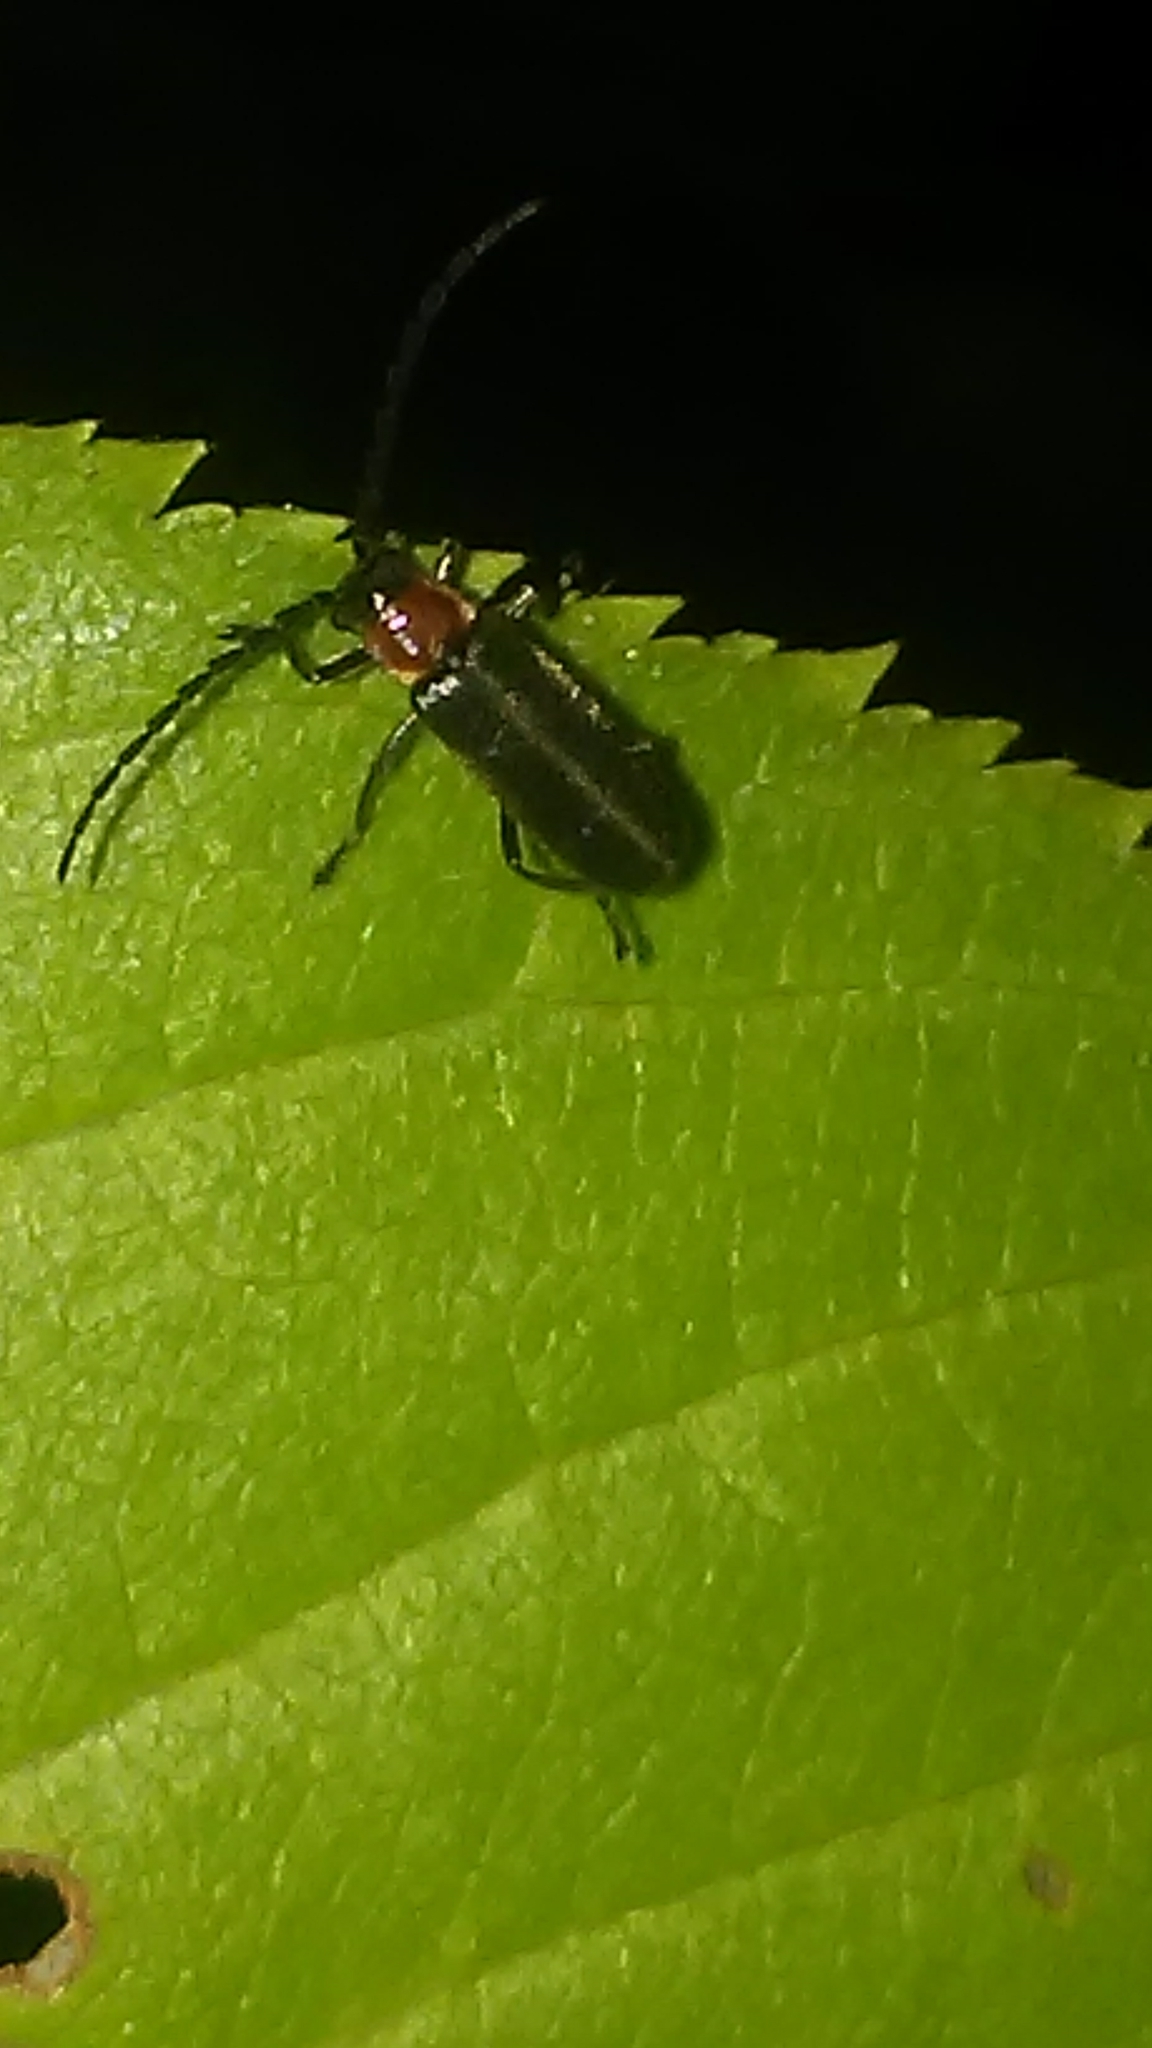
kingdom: Animalia
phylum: Arthropoda
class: Insecta
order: Coleoptera
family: Cantharidae
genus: Polemius
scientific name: Polemius limbatus
